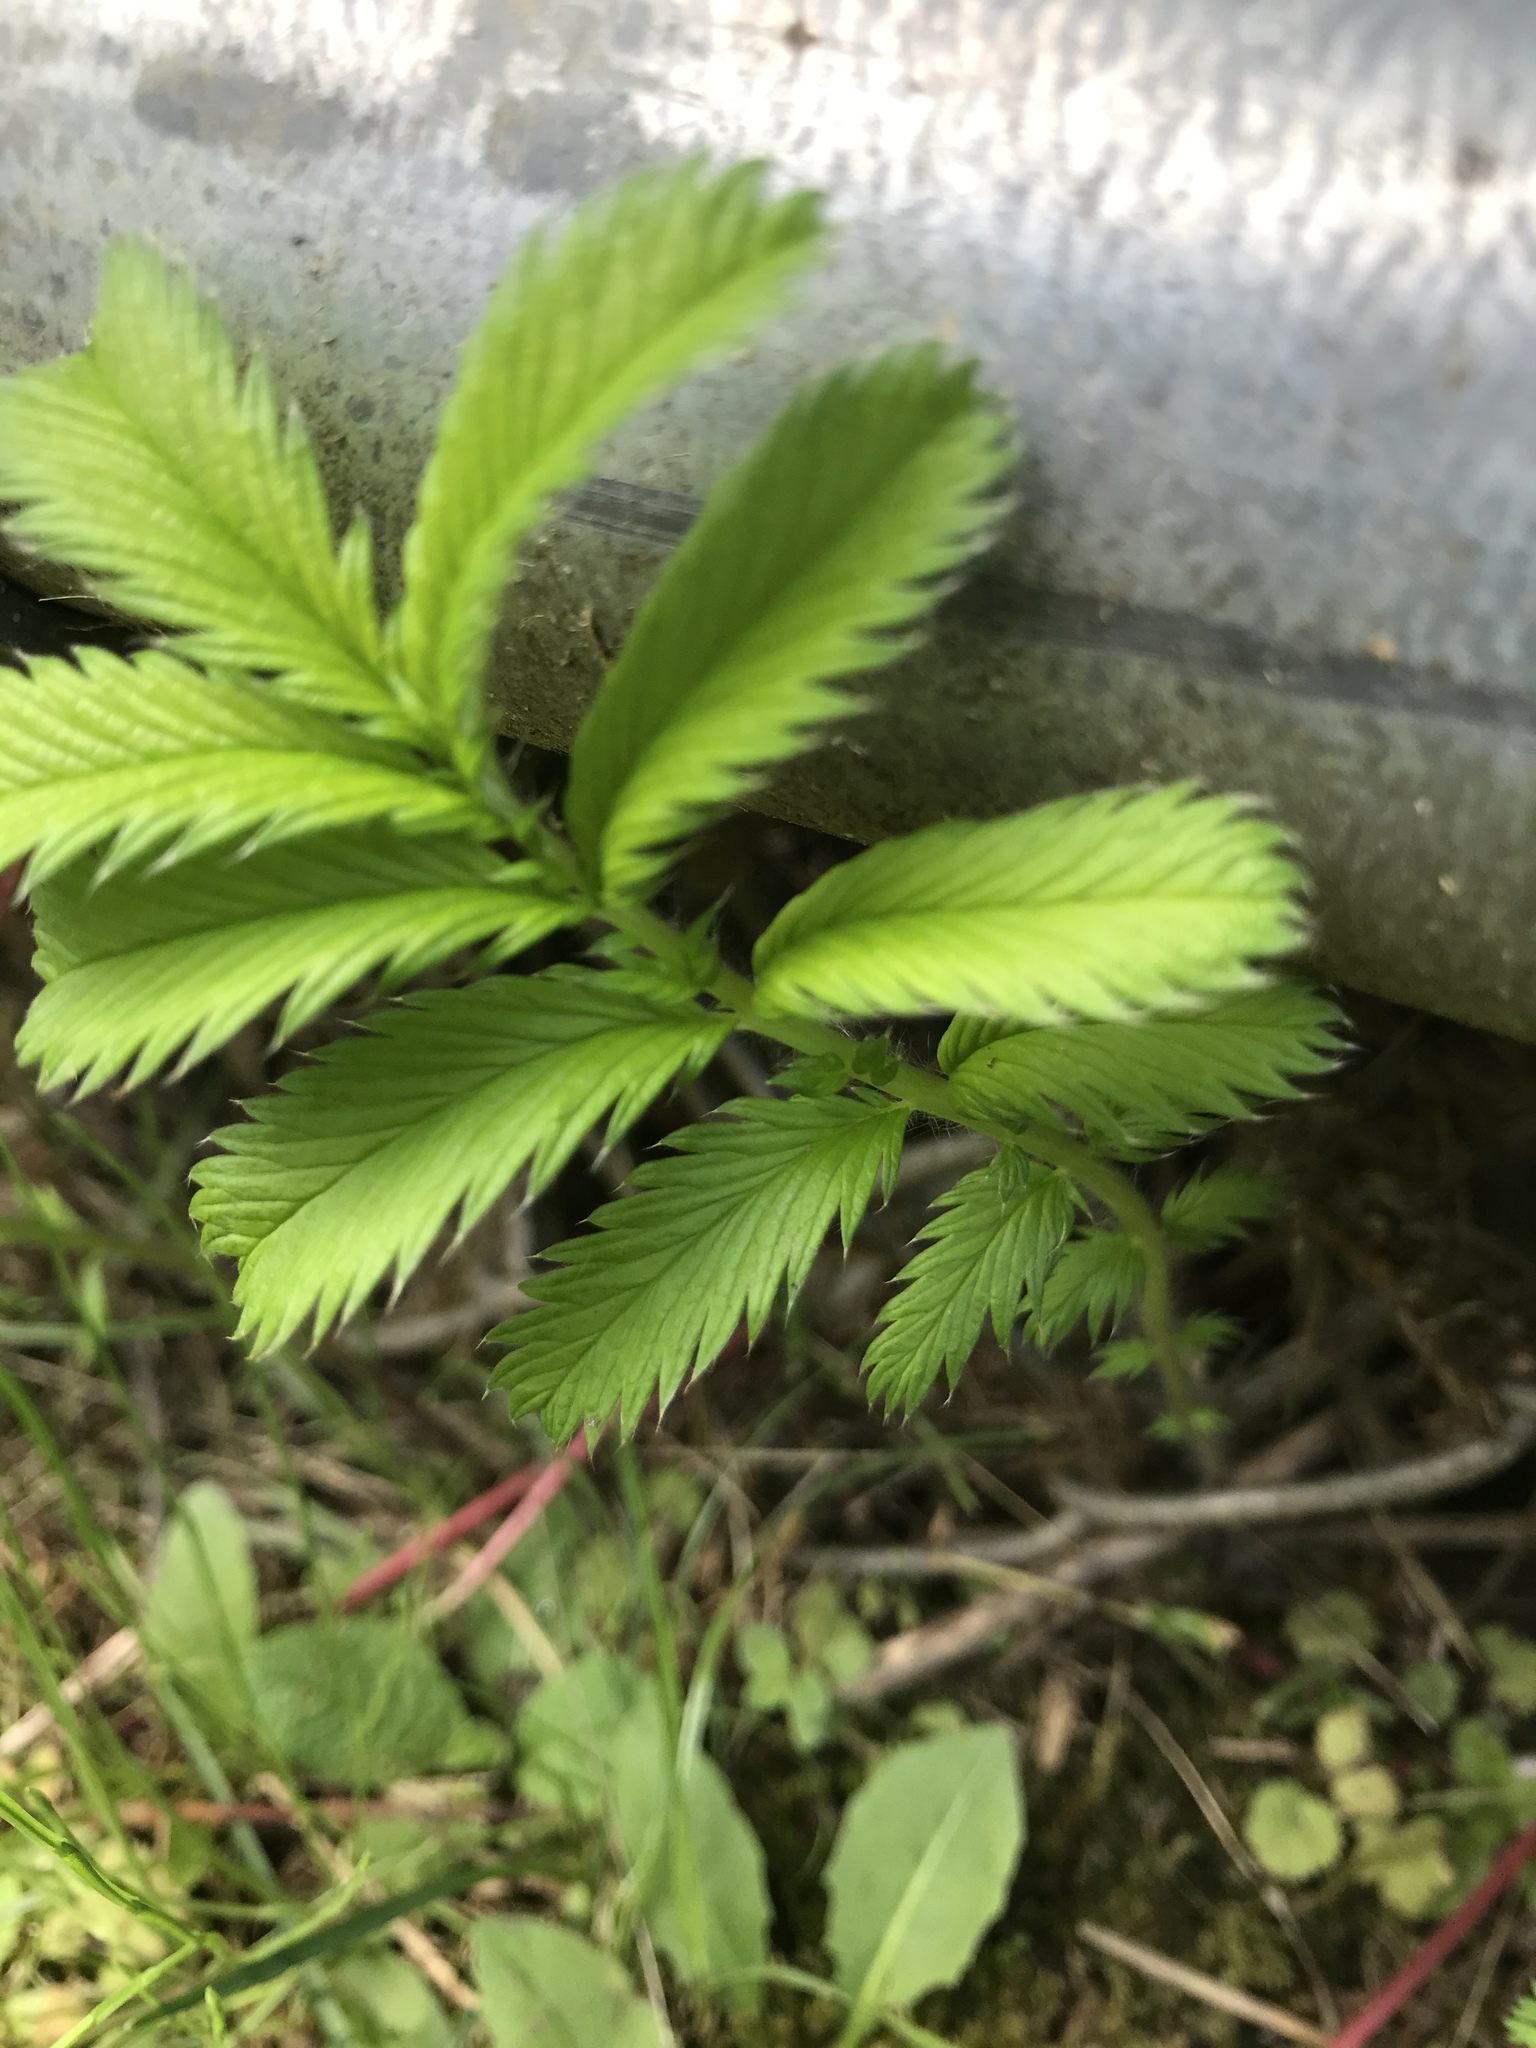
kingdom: Plantae
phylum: Tracheophyta
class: Magnoliopsida
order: Rosales
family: Rosaceae
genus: Comarum
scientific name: Comarum palustre
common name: Marsh cinquefoil
